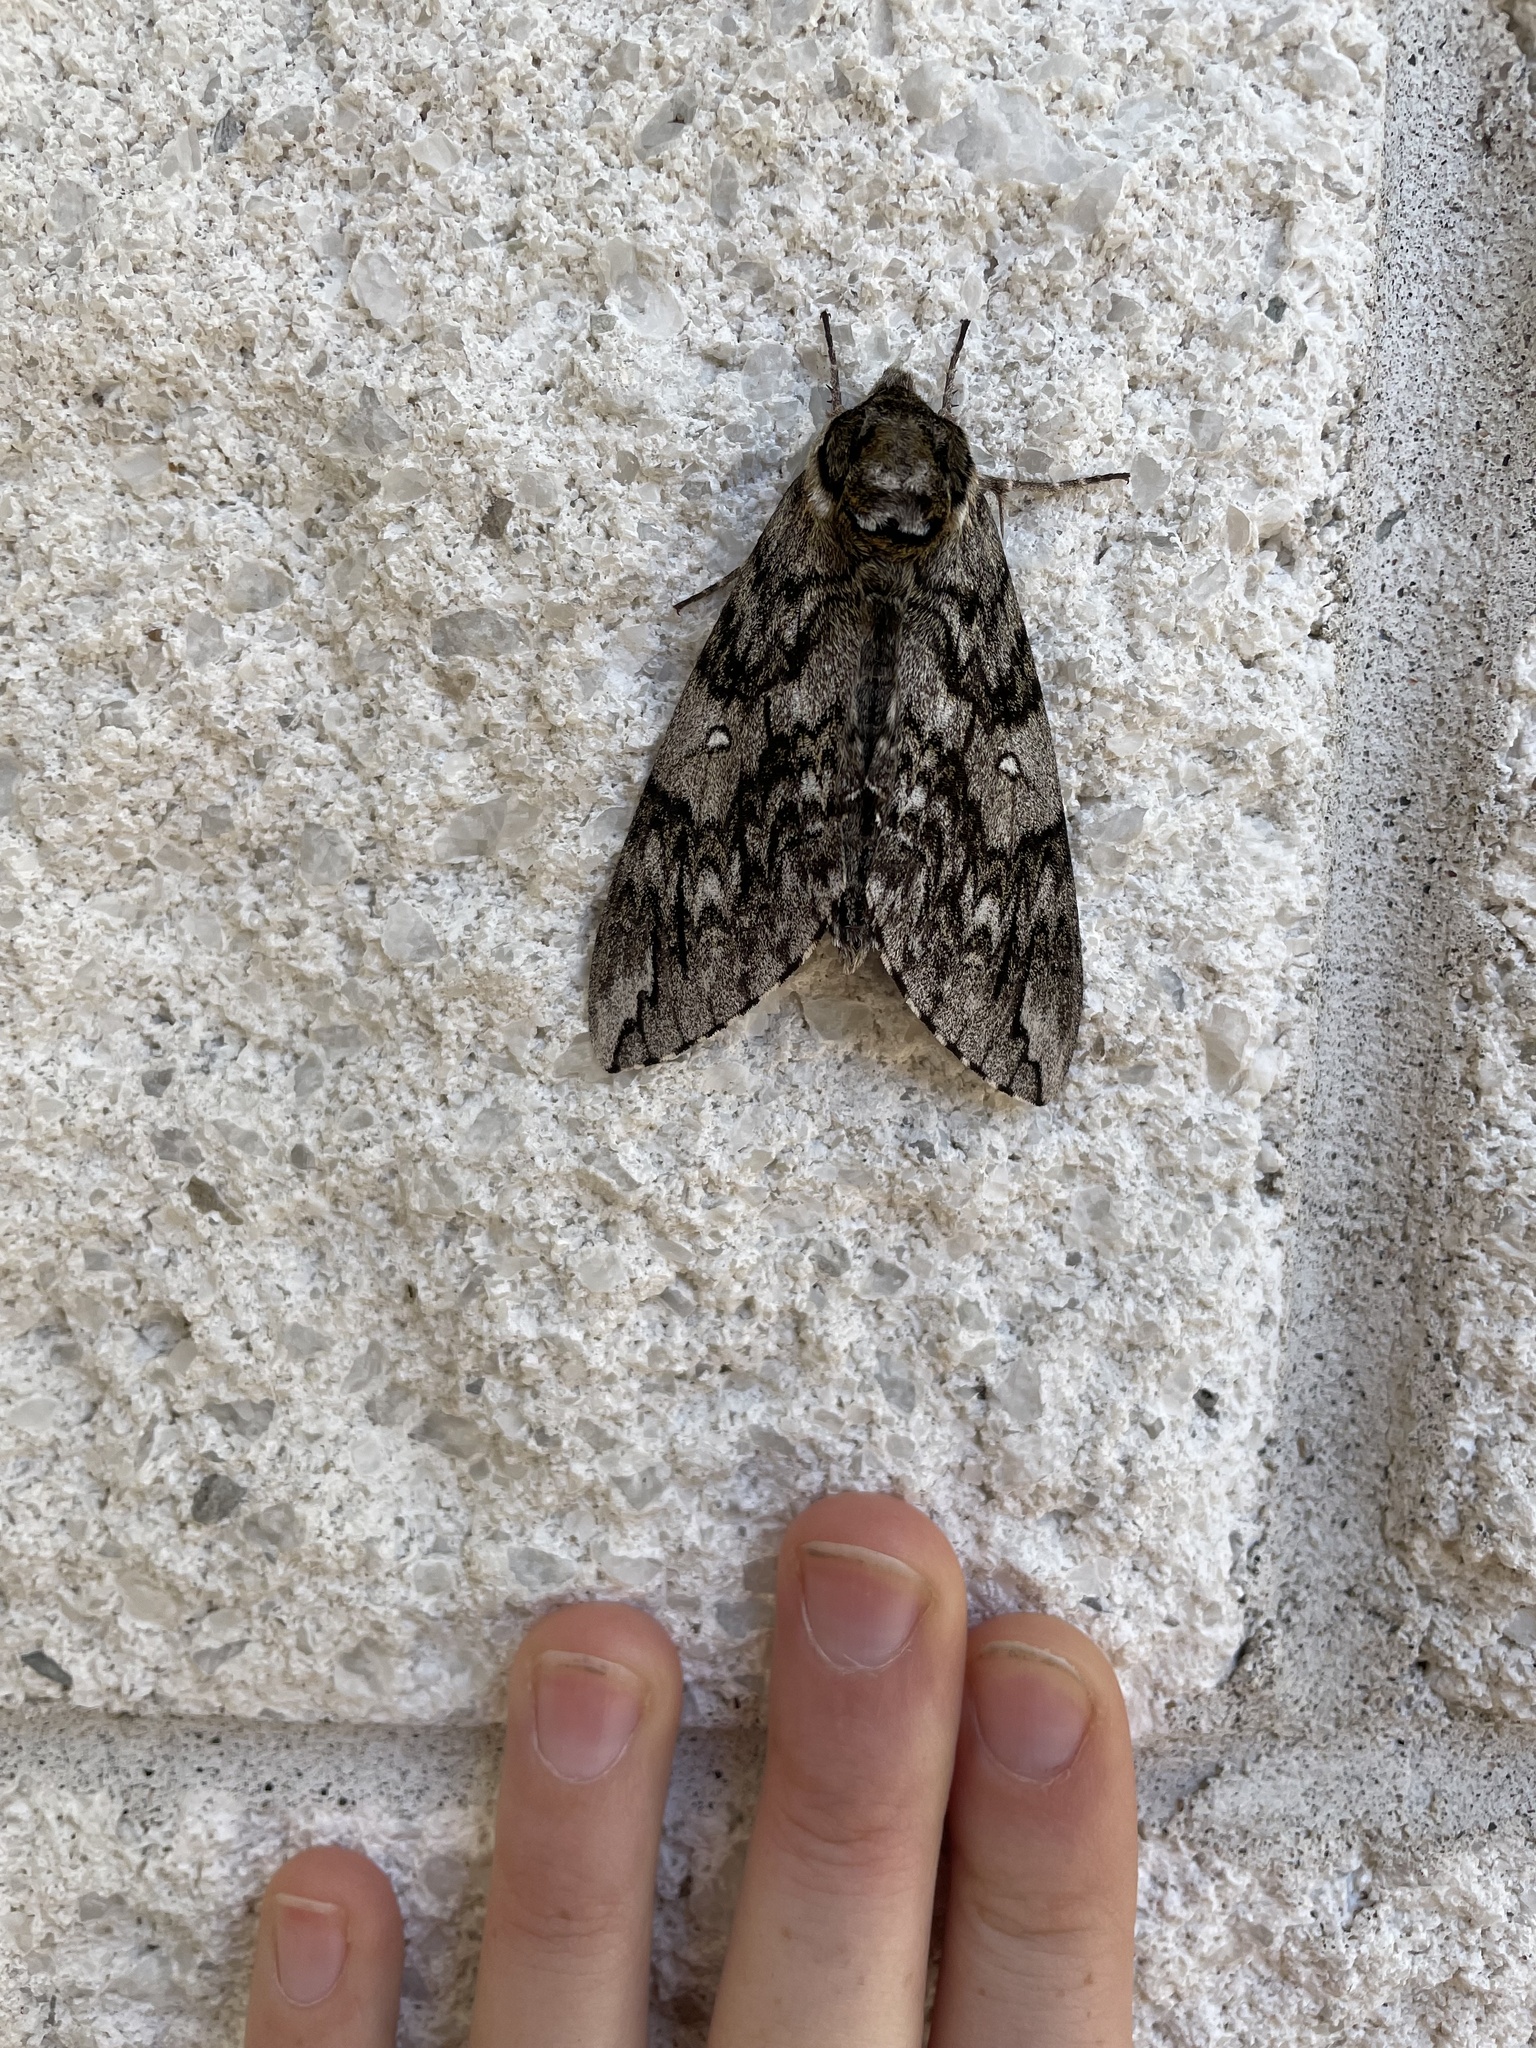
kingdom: Animalia
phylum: Arthropoda
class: Insecta
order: Lepidoptera
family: Sphingidae
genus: Ceratomia
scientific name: Ceratomia undulosa
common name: Waved sphinx
